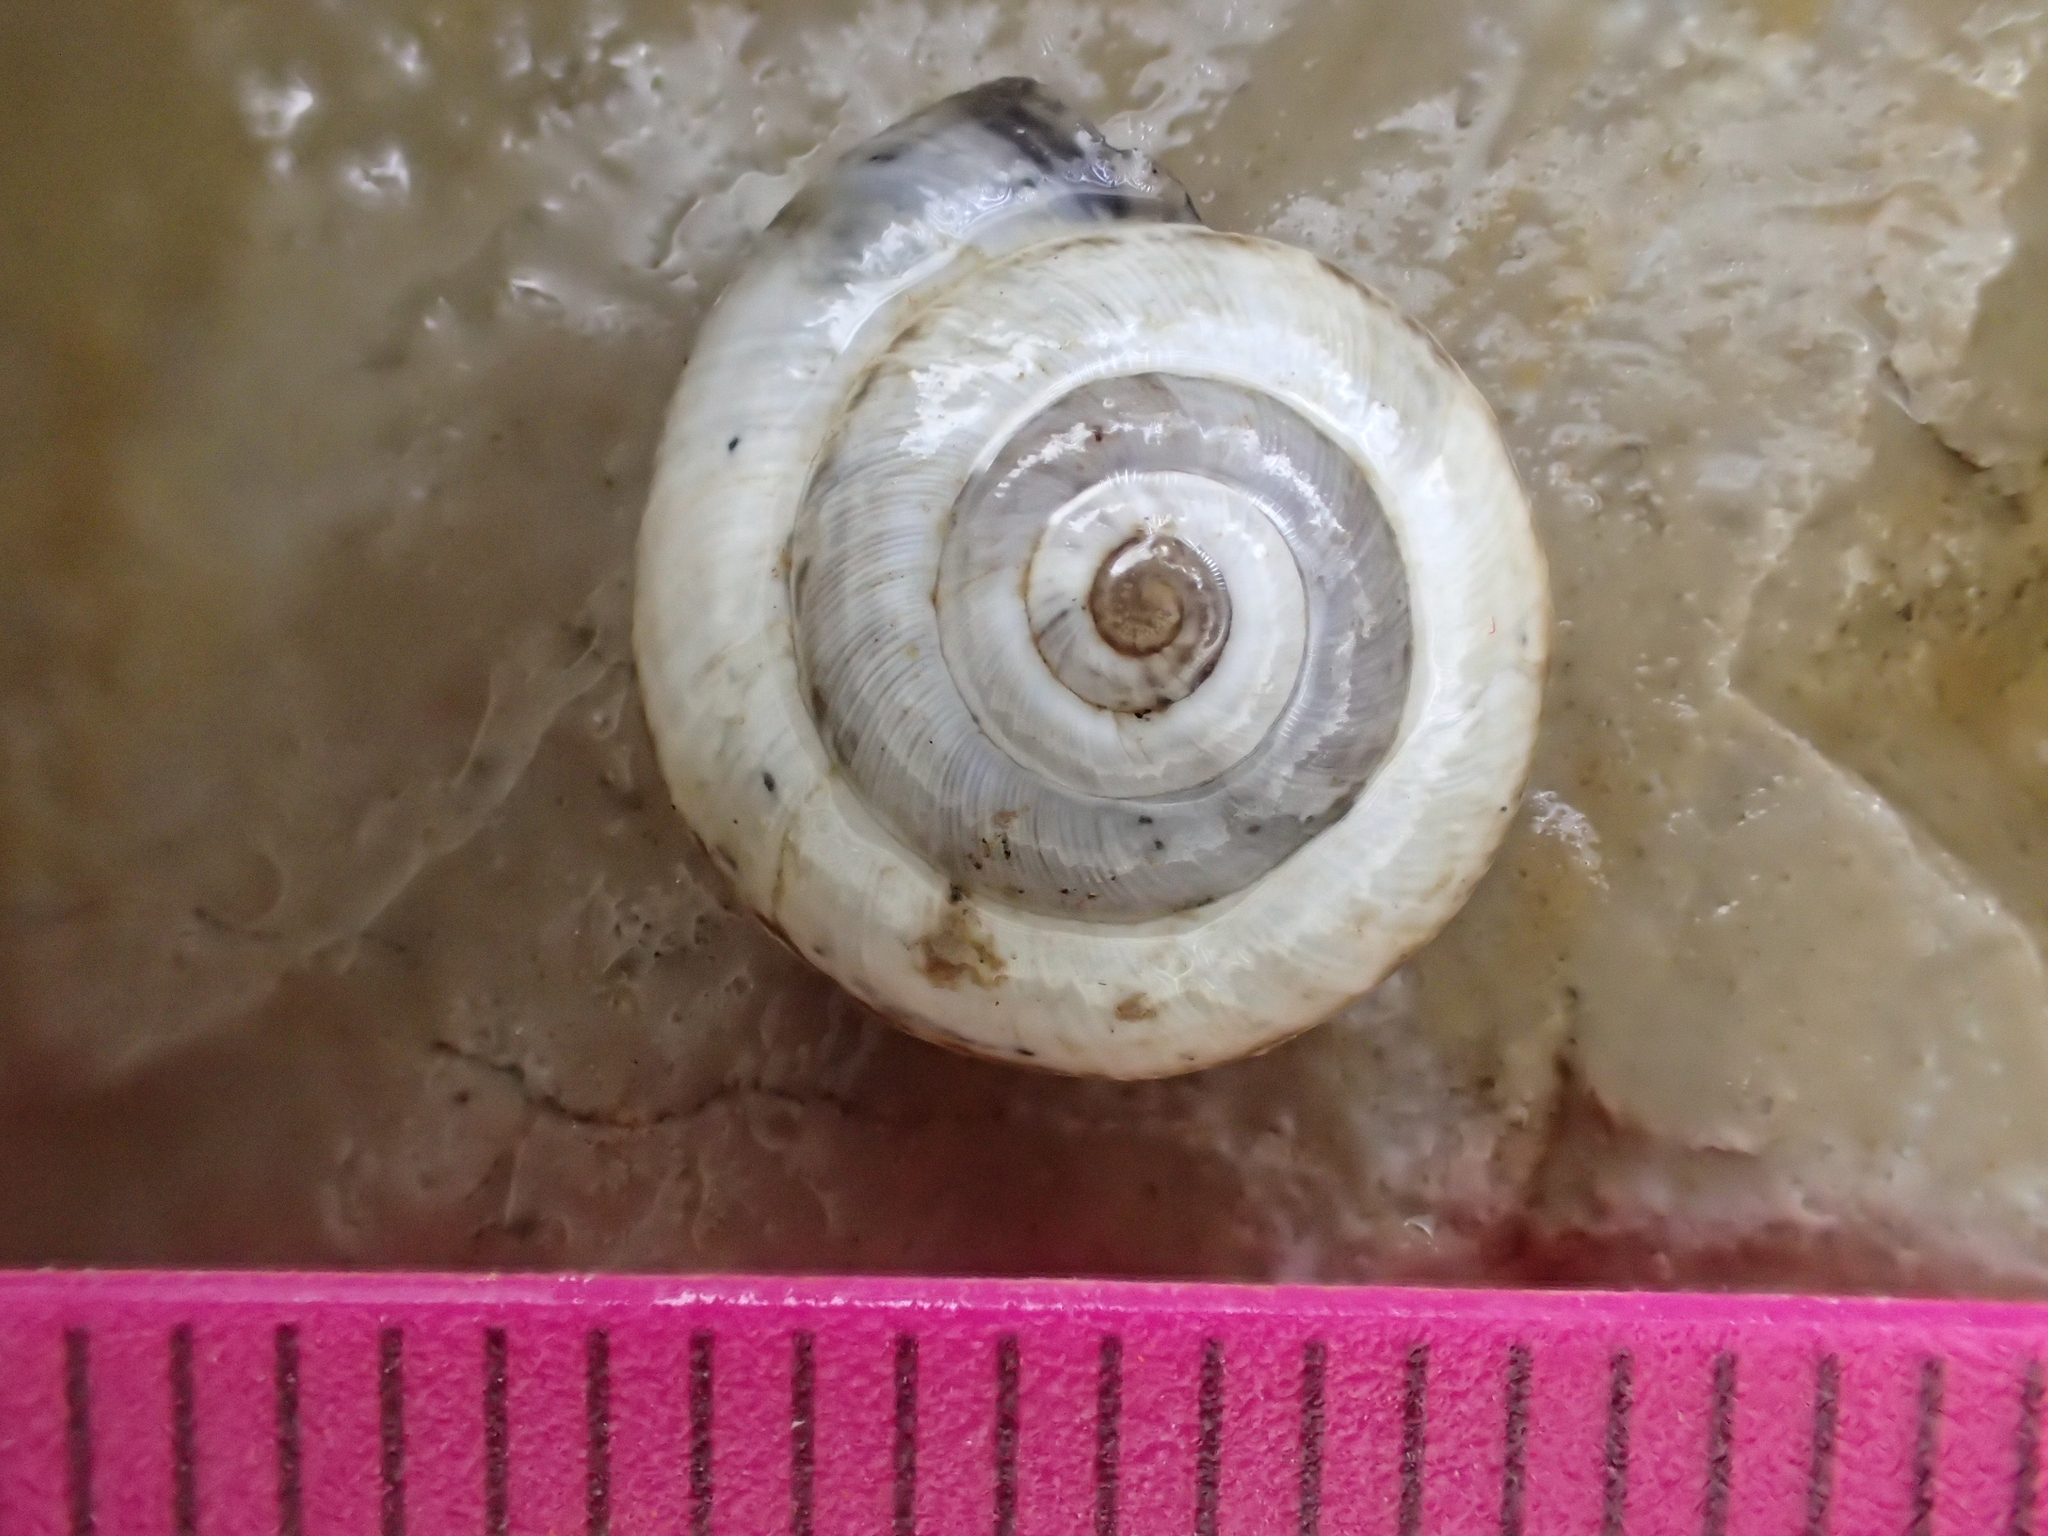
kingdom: Animalia
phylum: Mollusca
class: Gastropoda
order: Stylommatophora
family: Geomitridae
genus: Cernuella
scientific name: Cernuella virgata
